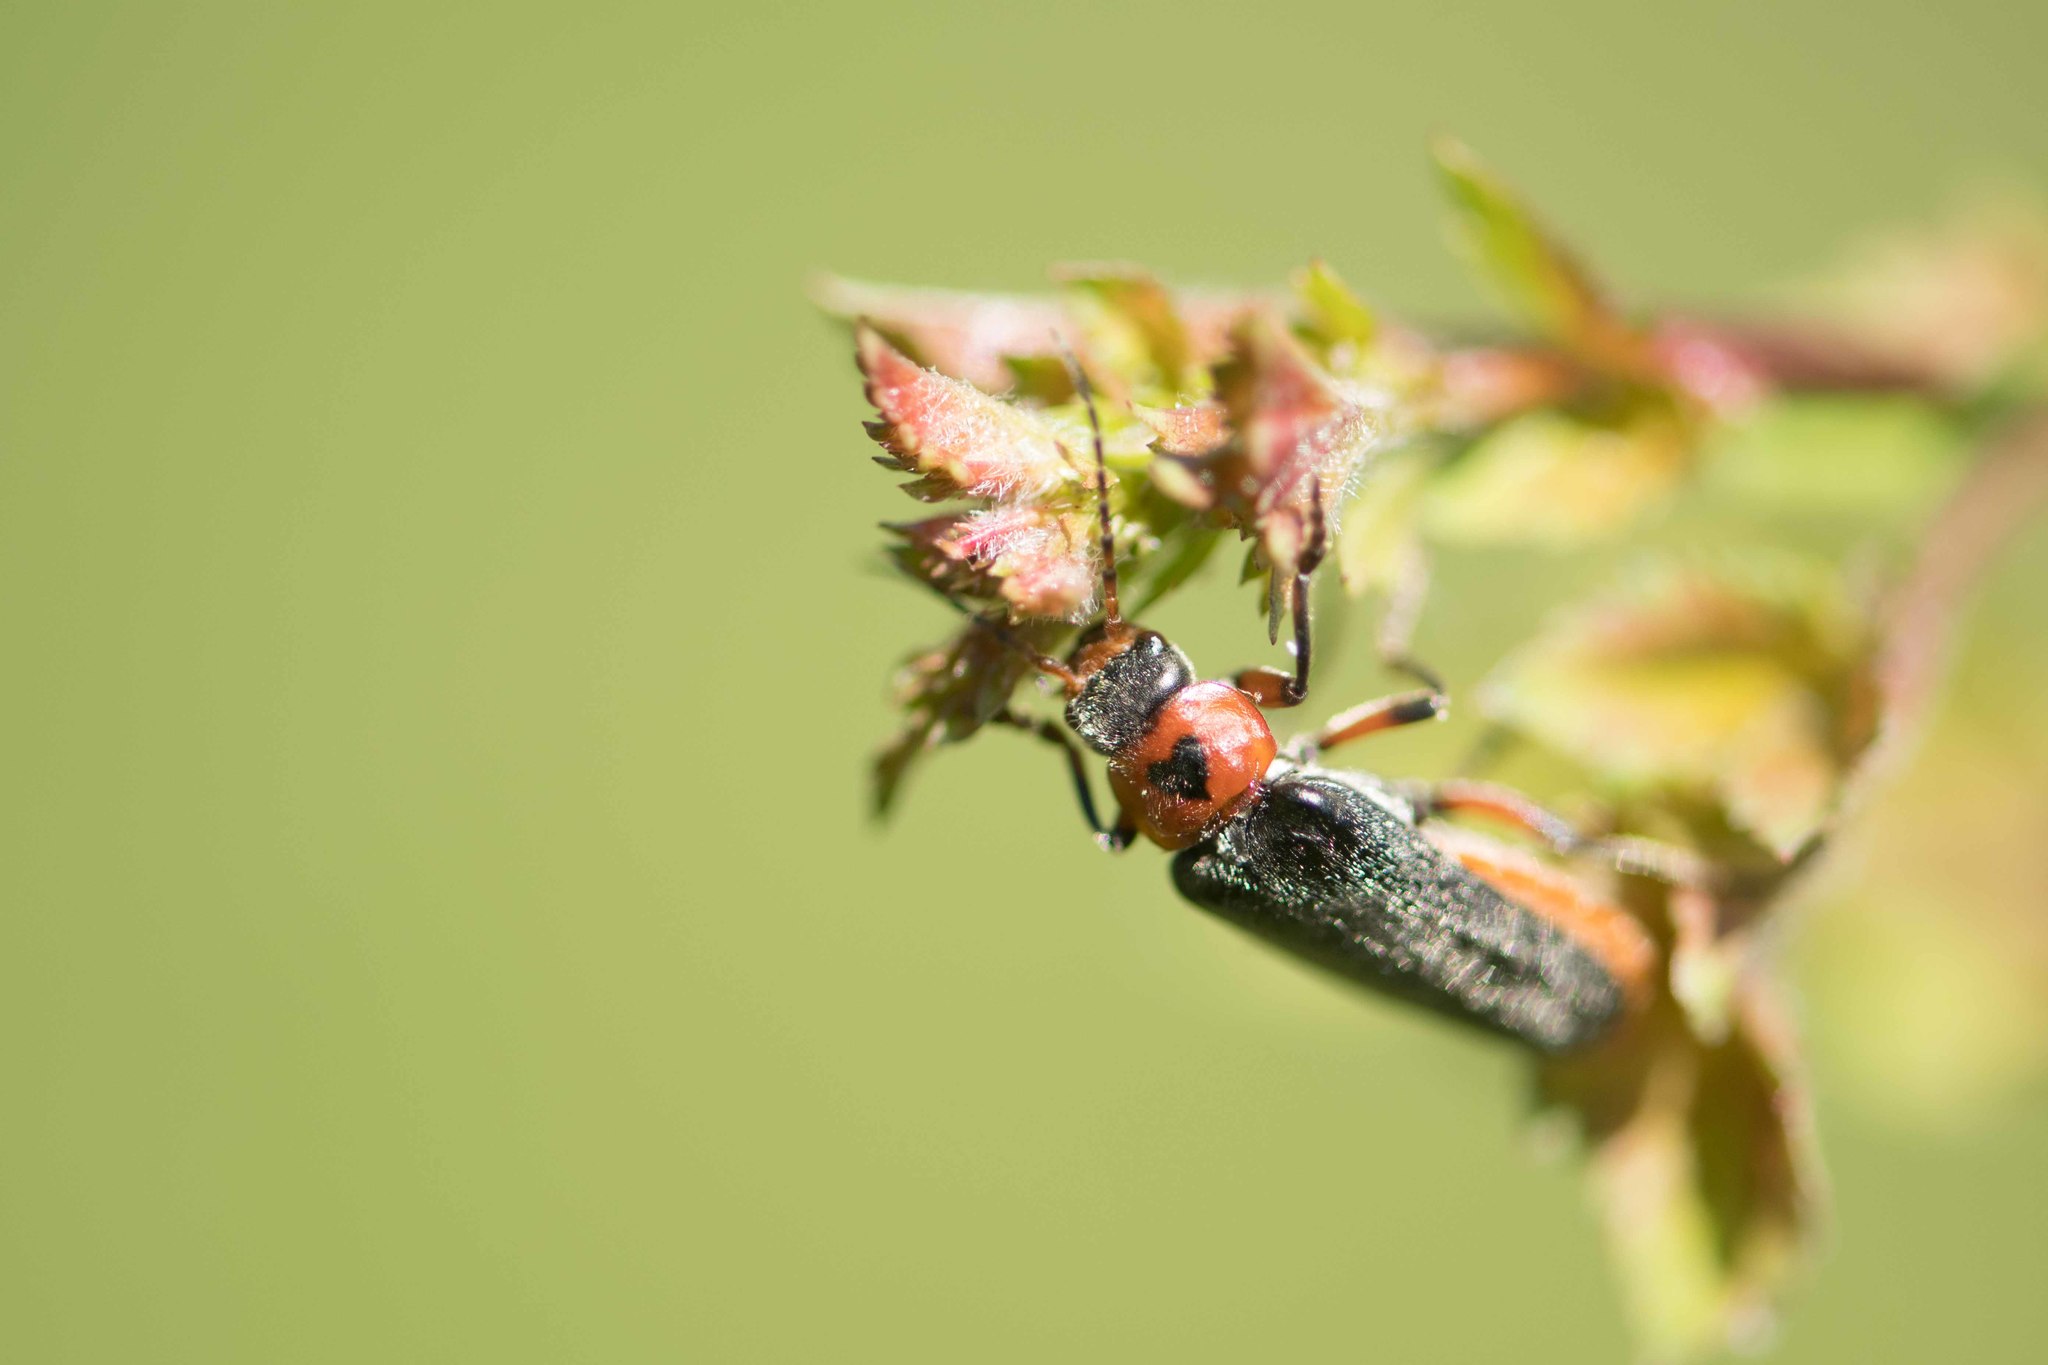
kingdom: Animalia
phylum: Arthropoda
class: Insecta
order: Coleoptera
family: Cantharidae
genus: Cantharis
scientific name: Cantharis rustica
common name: Soldier beetle
